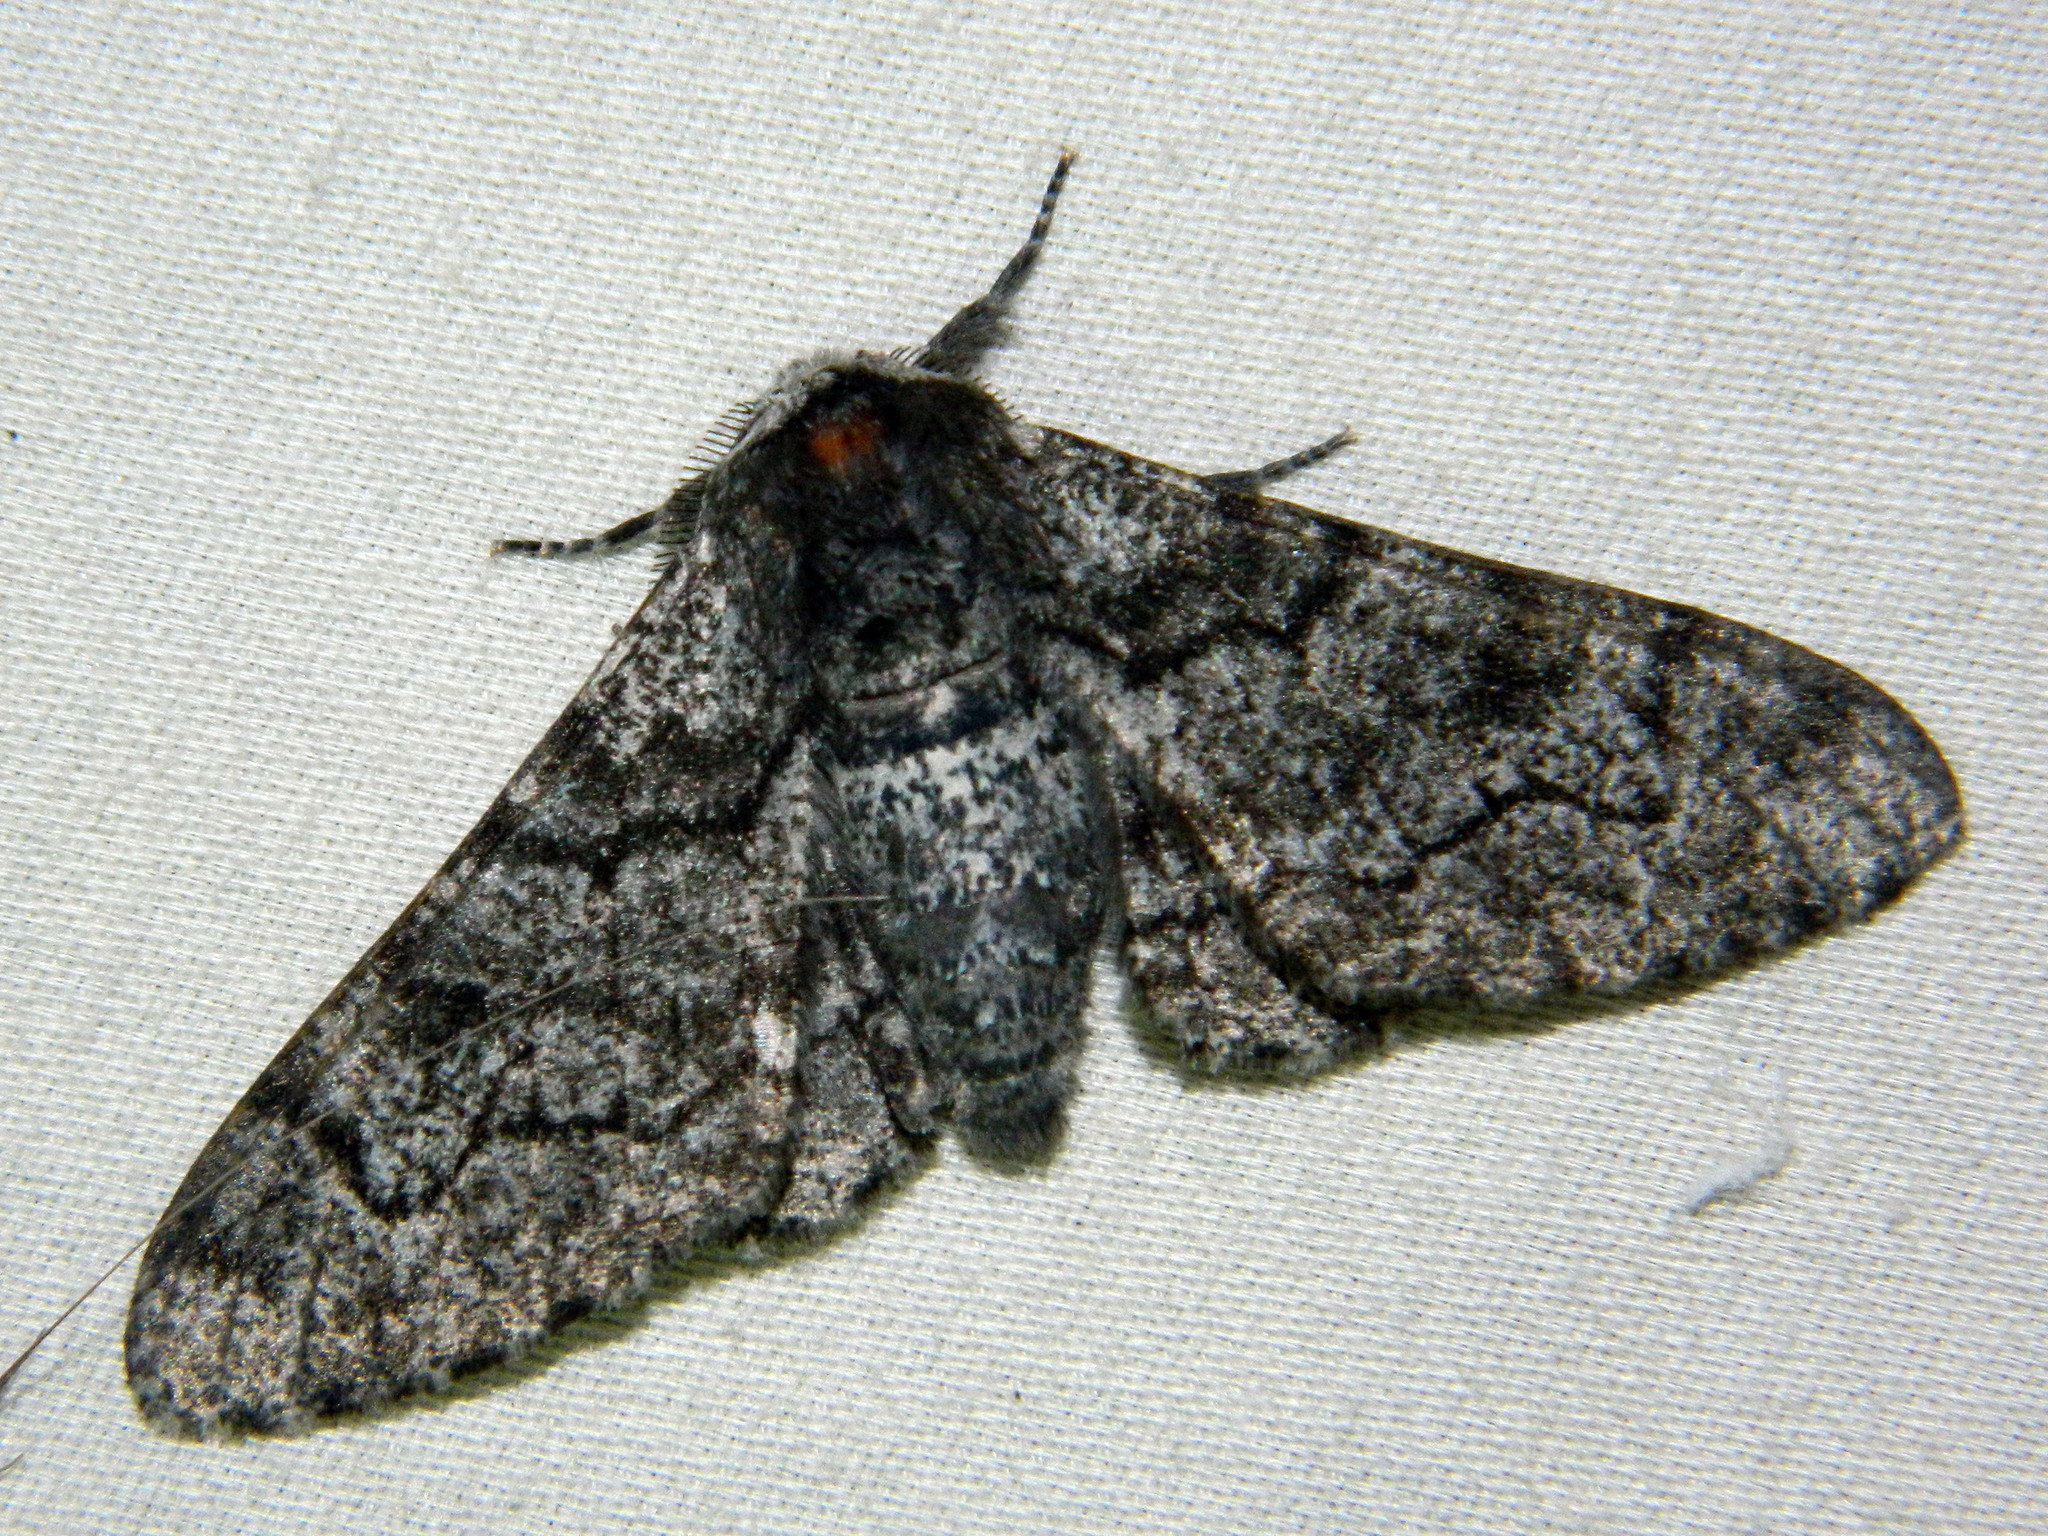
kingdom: Animalia
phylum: Arthropoda
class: Insecta
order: Lepidoptera
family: Geometridae
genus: Biston
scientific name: Biston betularia
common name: Peppered moth
